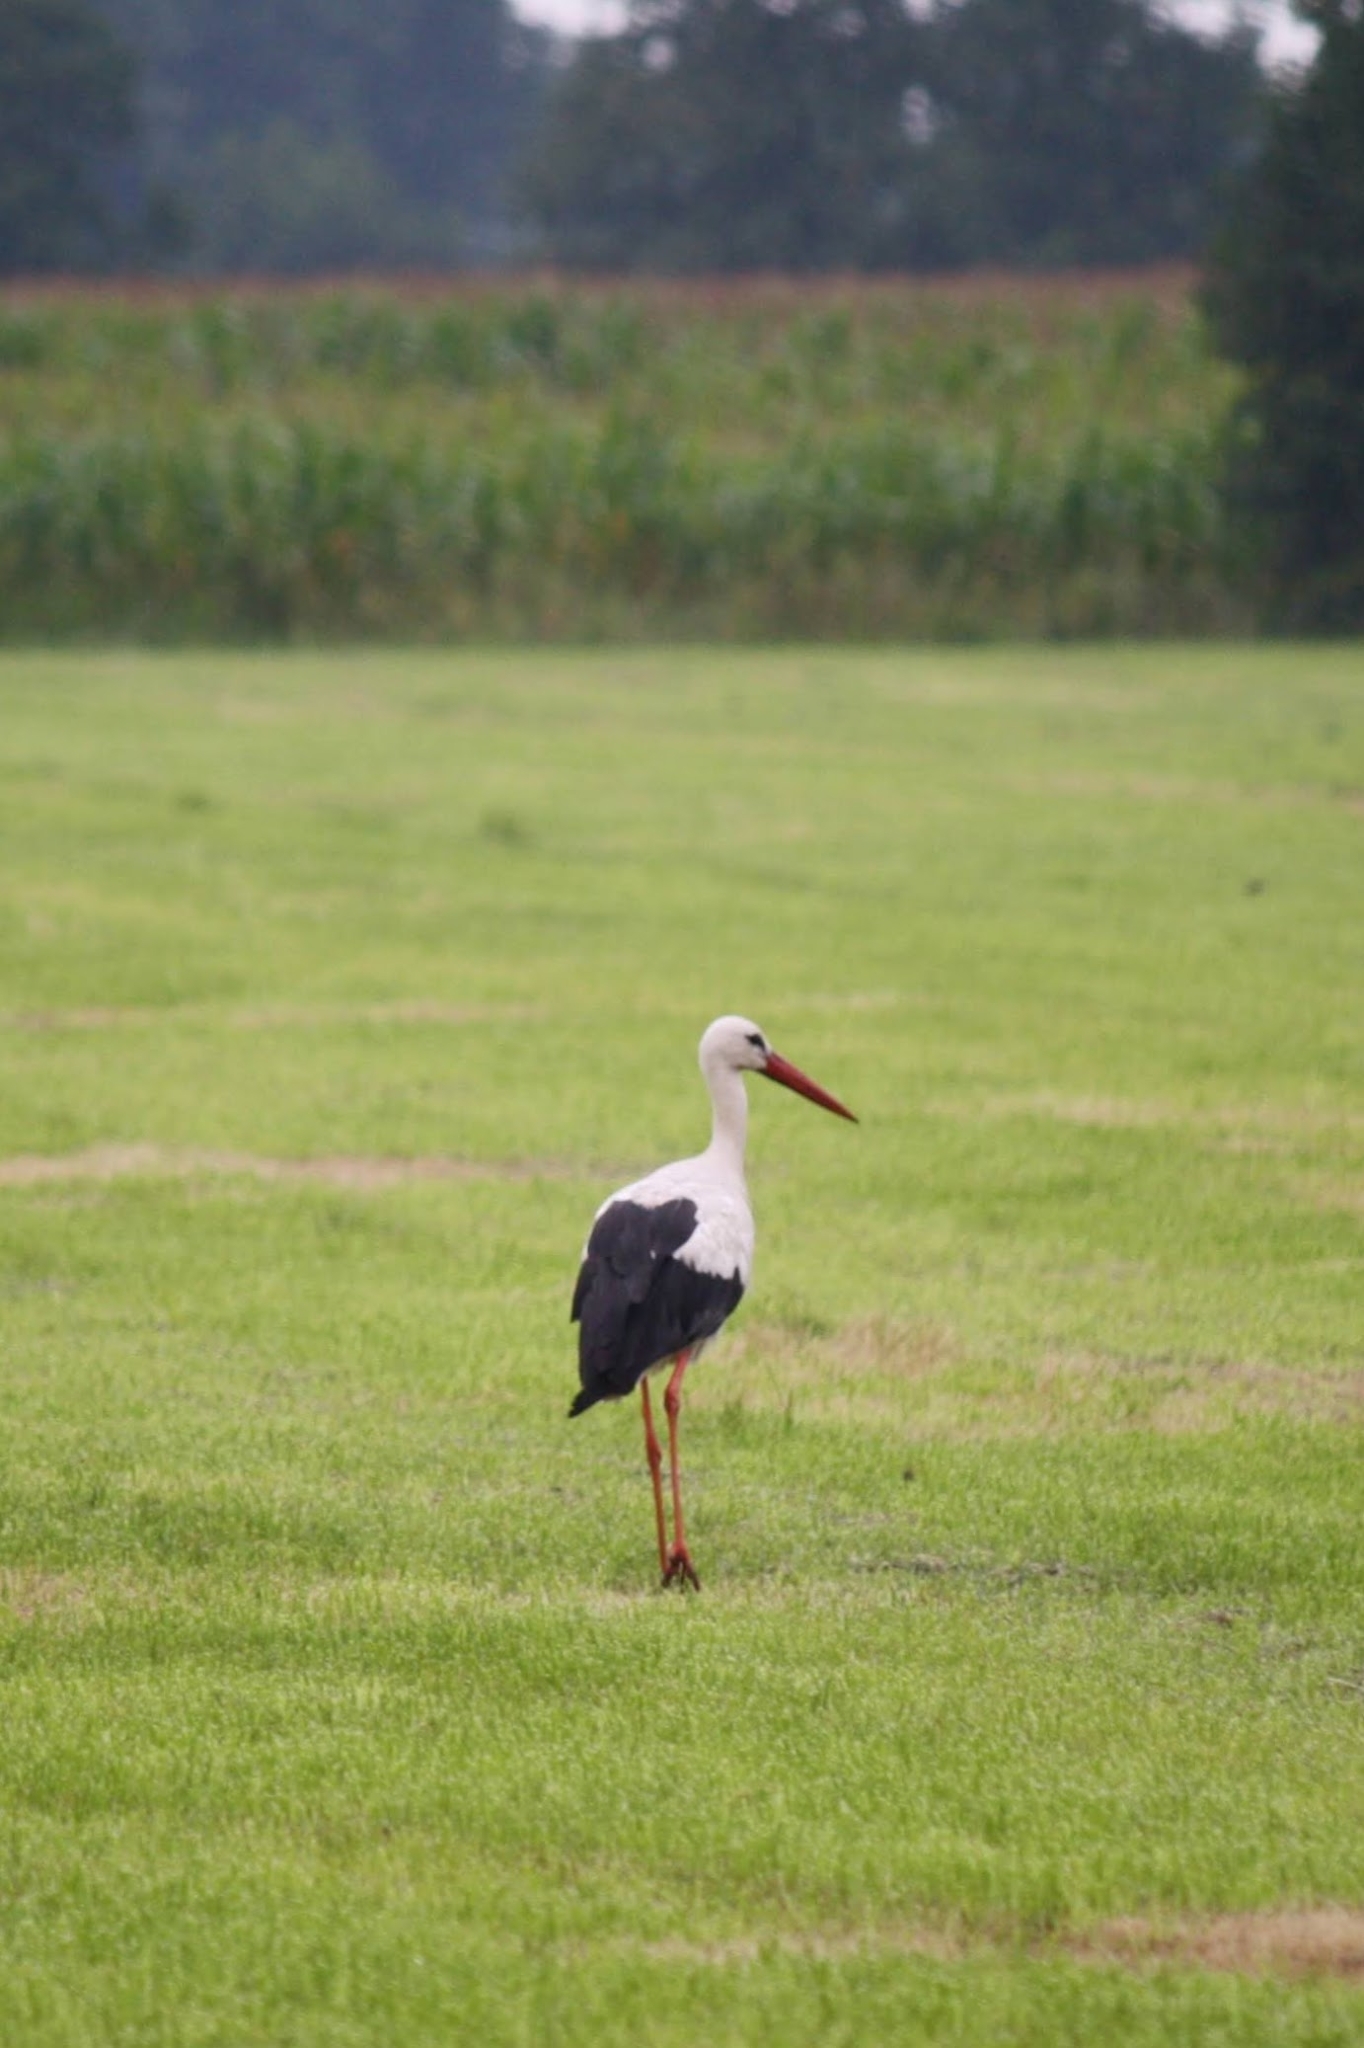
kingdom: Animalia
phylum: Chordata
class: Aves
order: Ciconiiformes
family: Ciconiidae
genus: Ciconia
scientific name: Ciconia ciconia
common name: White stork
